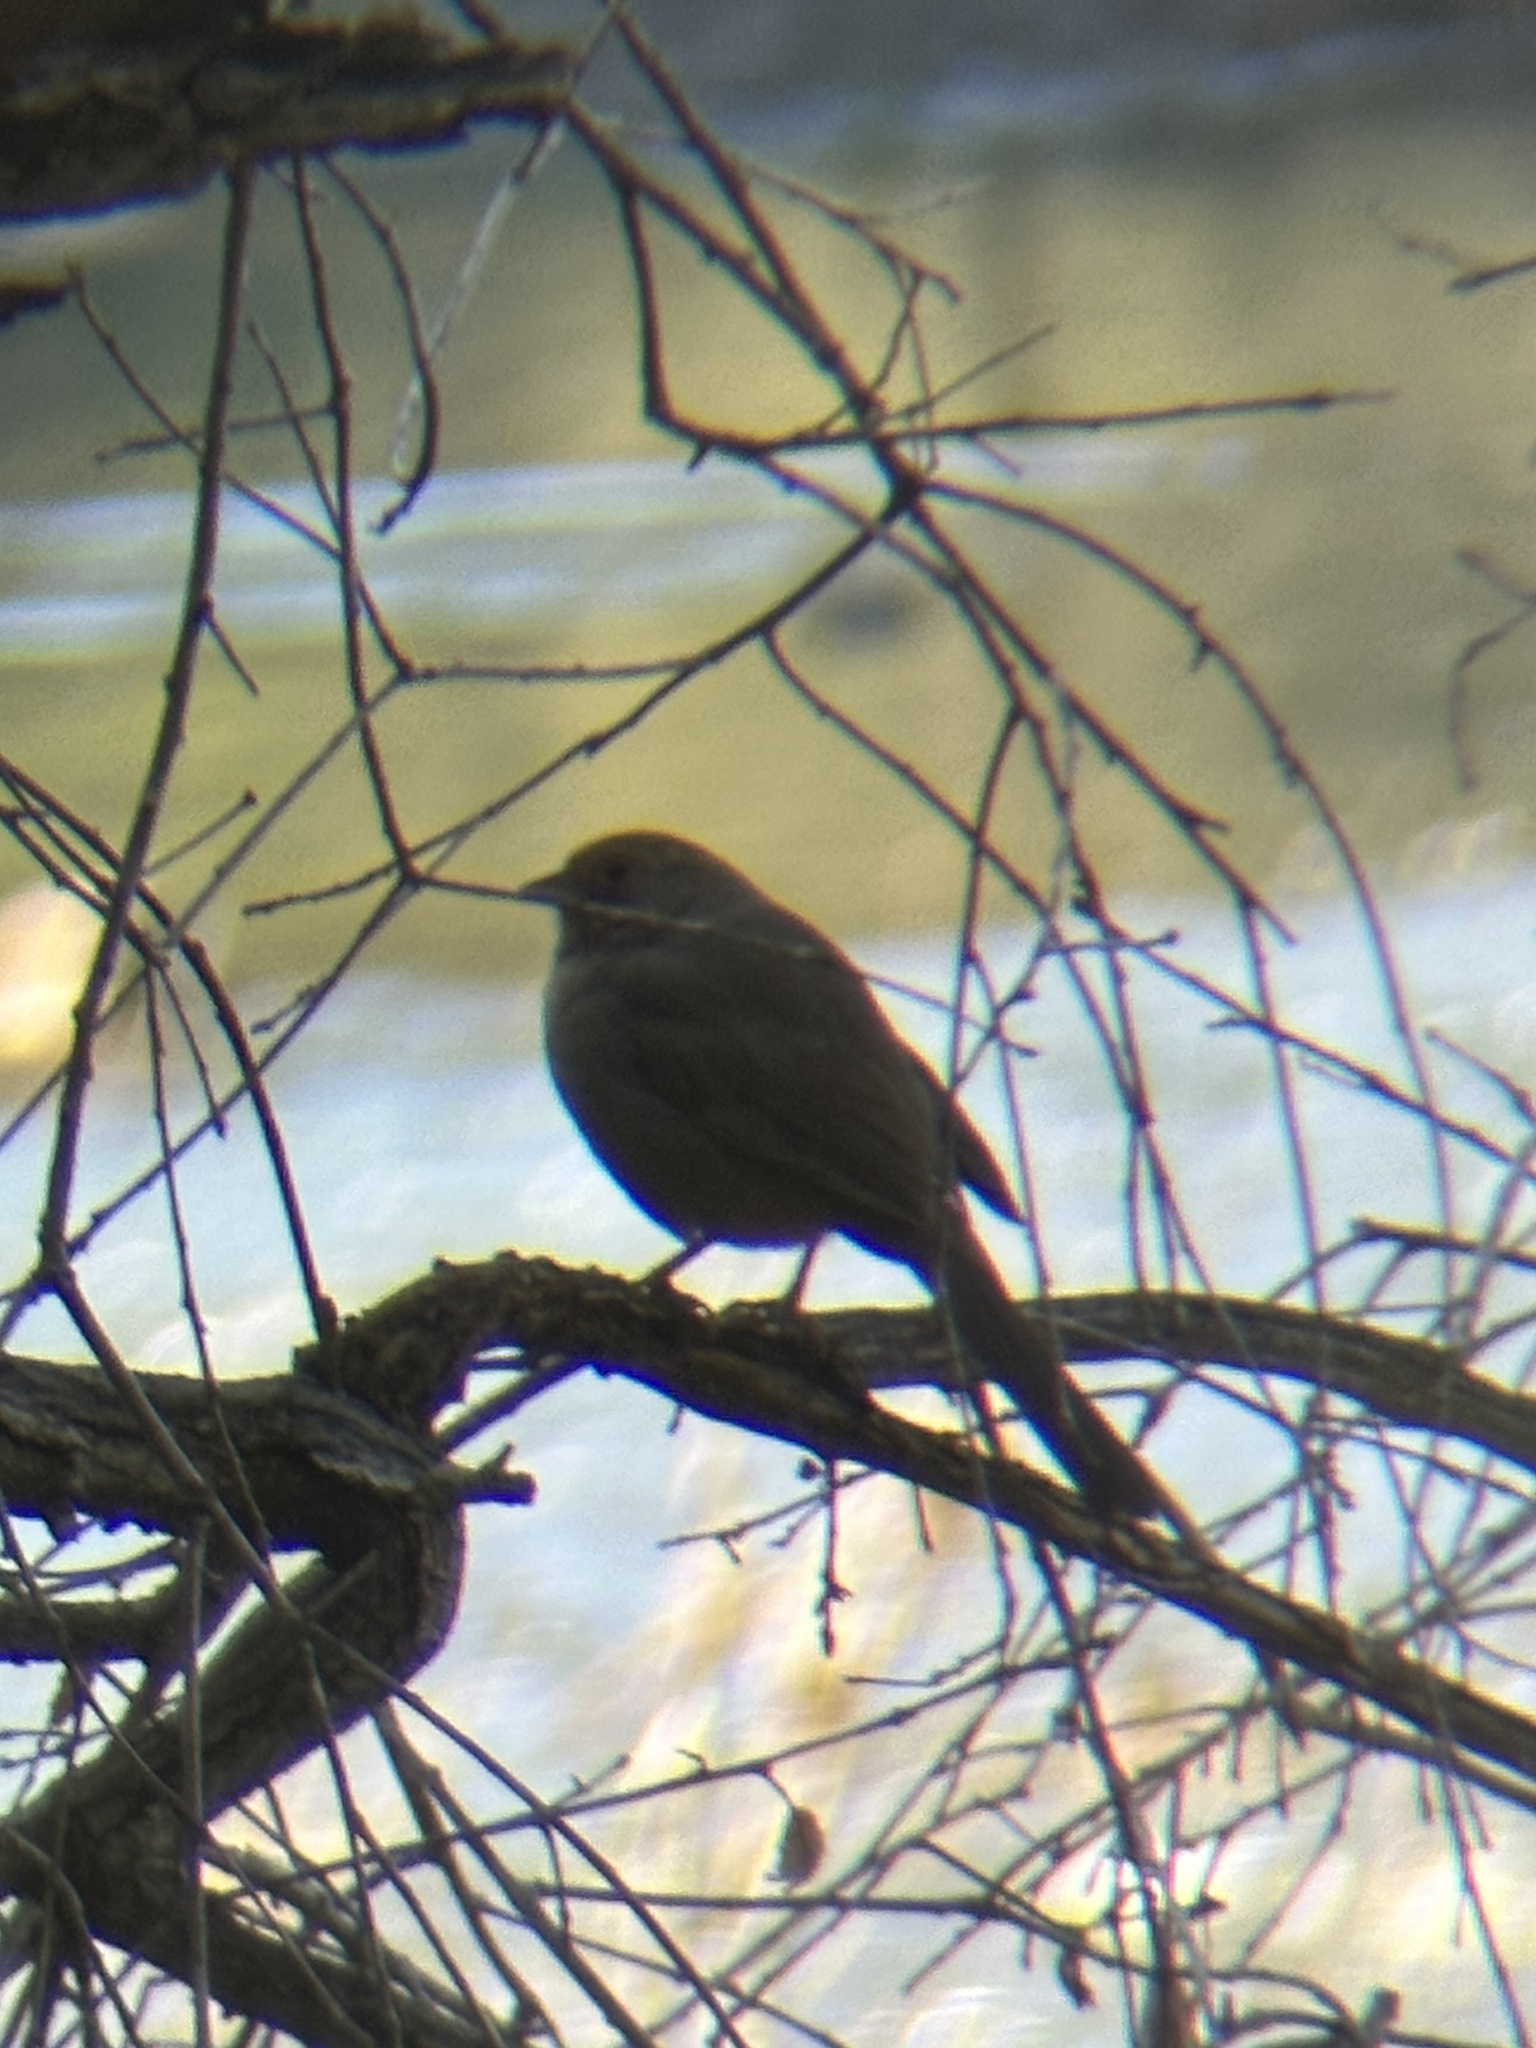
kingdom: Animalia
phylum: Chordata
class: Aves
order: Passeriformes
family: Passerellidae
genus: Melozone
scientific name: Melozone crissalis
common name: California towhee
